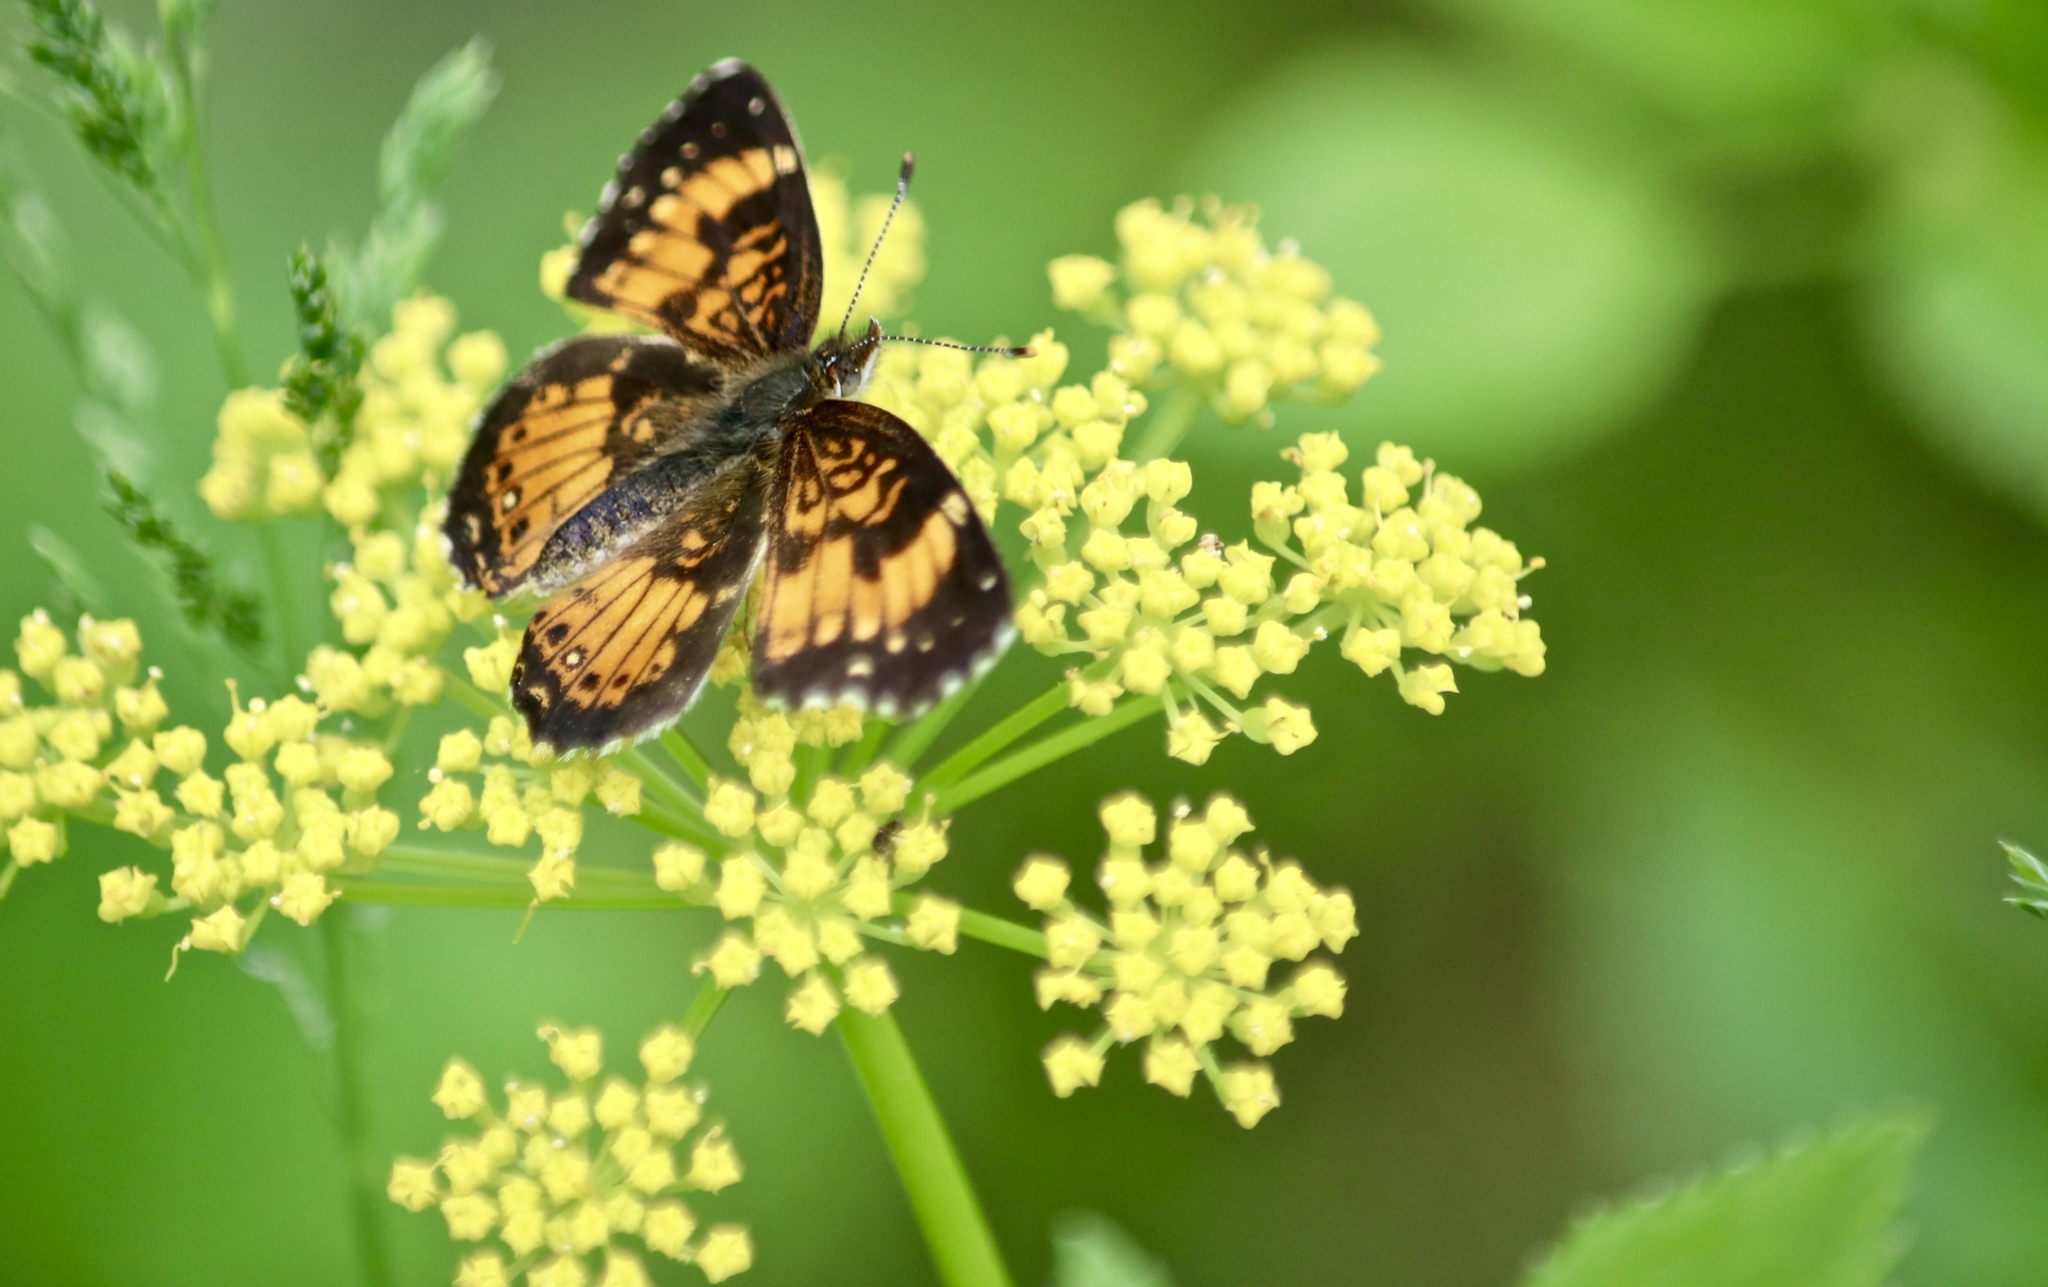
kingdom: Animalia
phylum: Arthropoda
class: Insecta
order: Lepidoptera
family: Nymphalidae
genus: Chlosyne
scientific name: Chlosyne nycteis
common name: Silvery checkerspot
